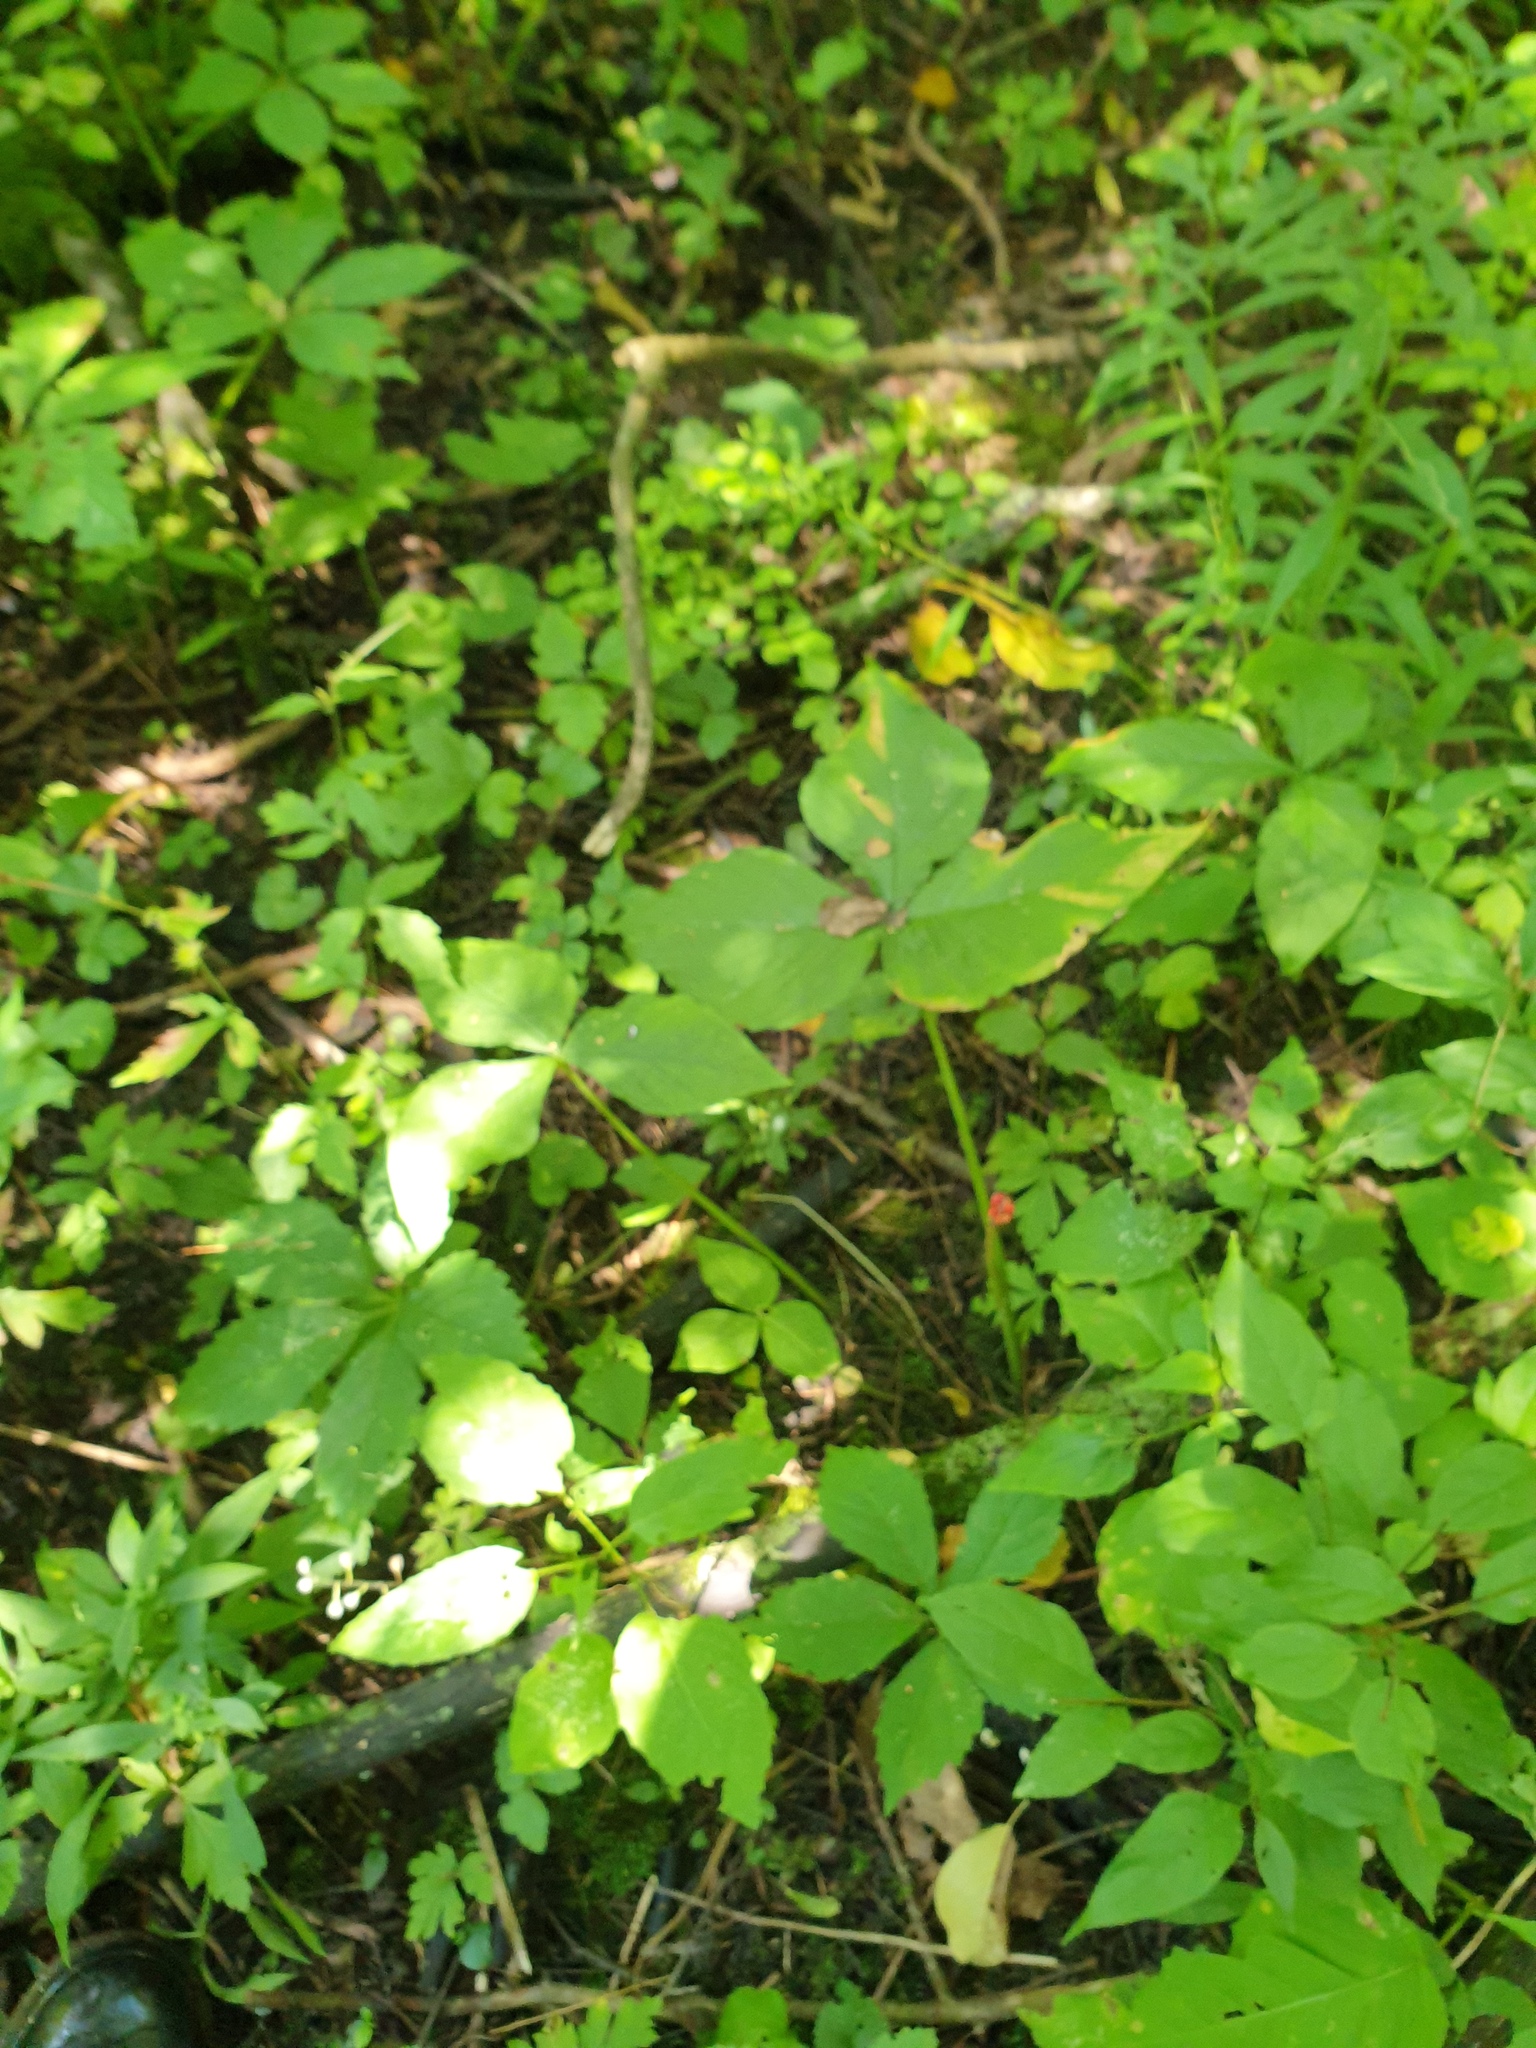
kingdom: Plantae
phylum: Tracheophyta
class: Liliopsida
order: Alismatales
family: Araceae
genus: Arisaema
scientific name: Arisaema triphyllum
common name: Jack-in-the-pulpit
